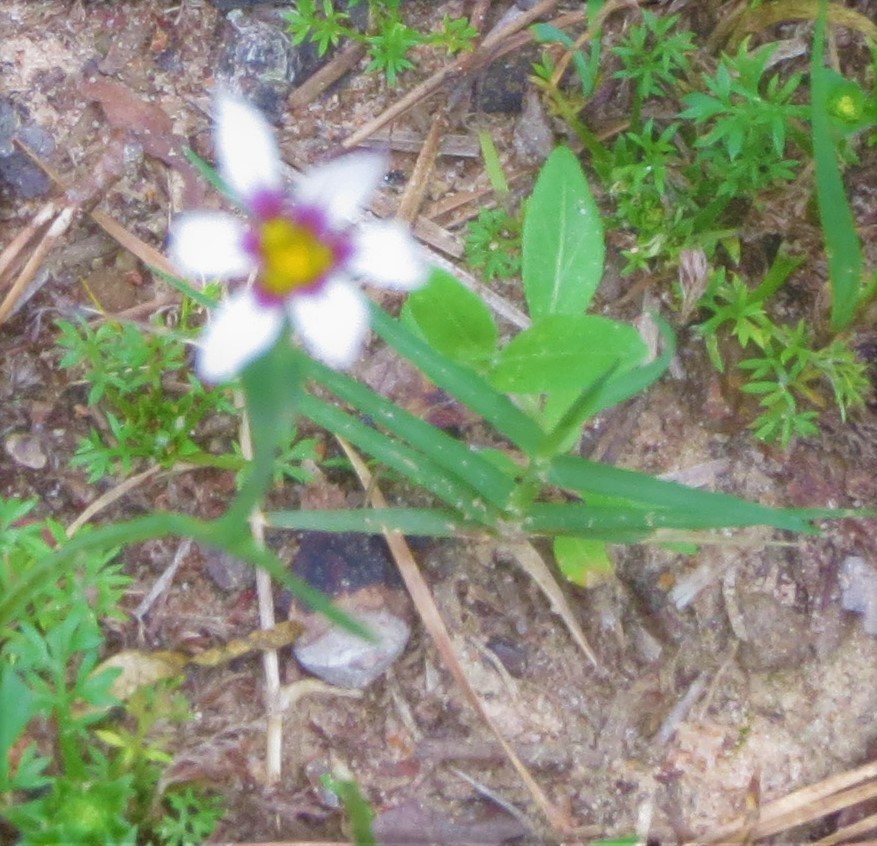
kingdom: Plantae
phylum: Tracheophyta
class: Liliopsida
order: Asparagales
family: Iridaceae
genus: Sisyrinchium
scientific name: Sisyrinchium micranthum
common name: Bermuda pigroot
